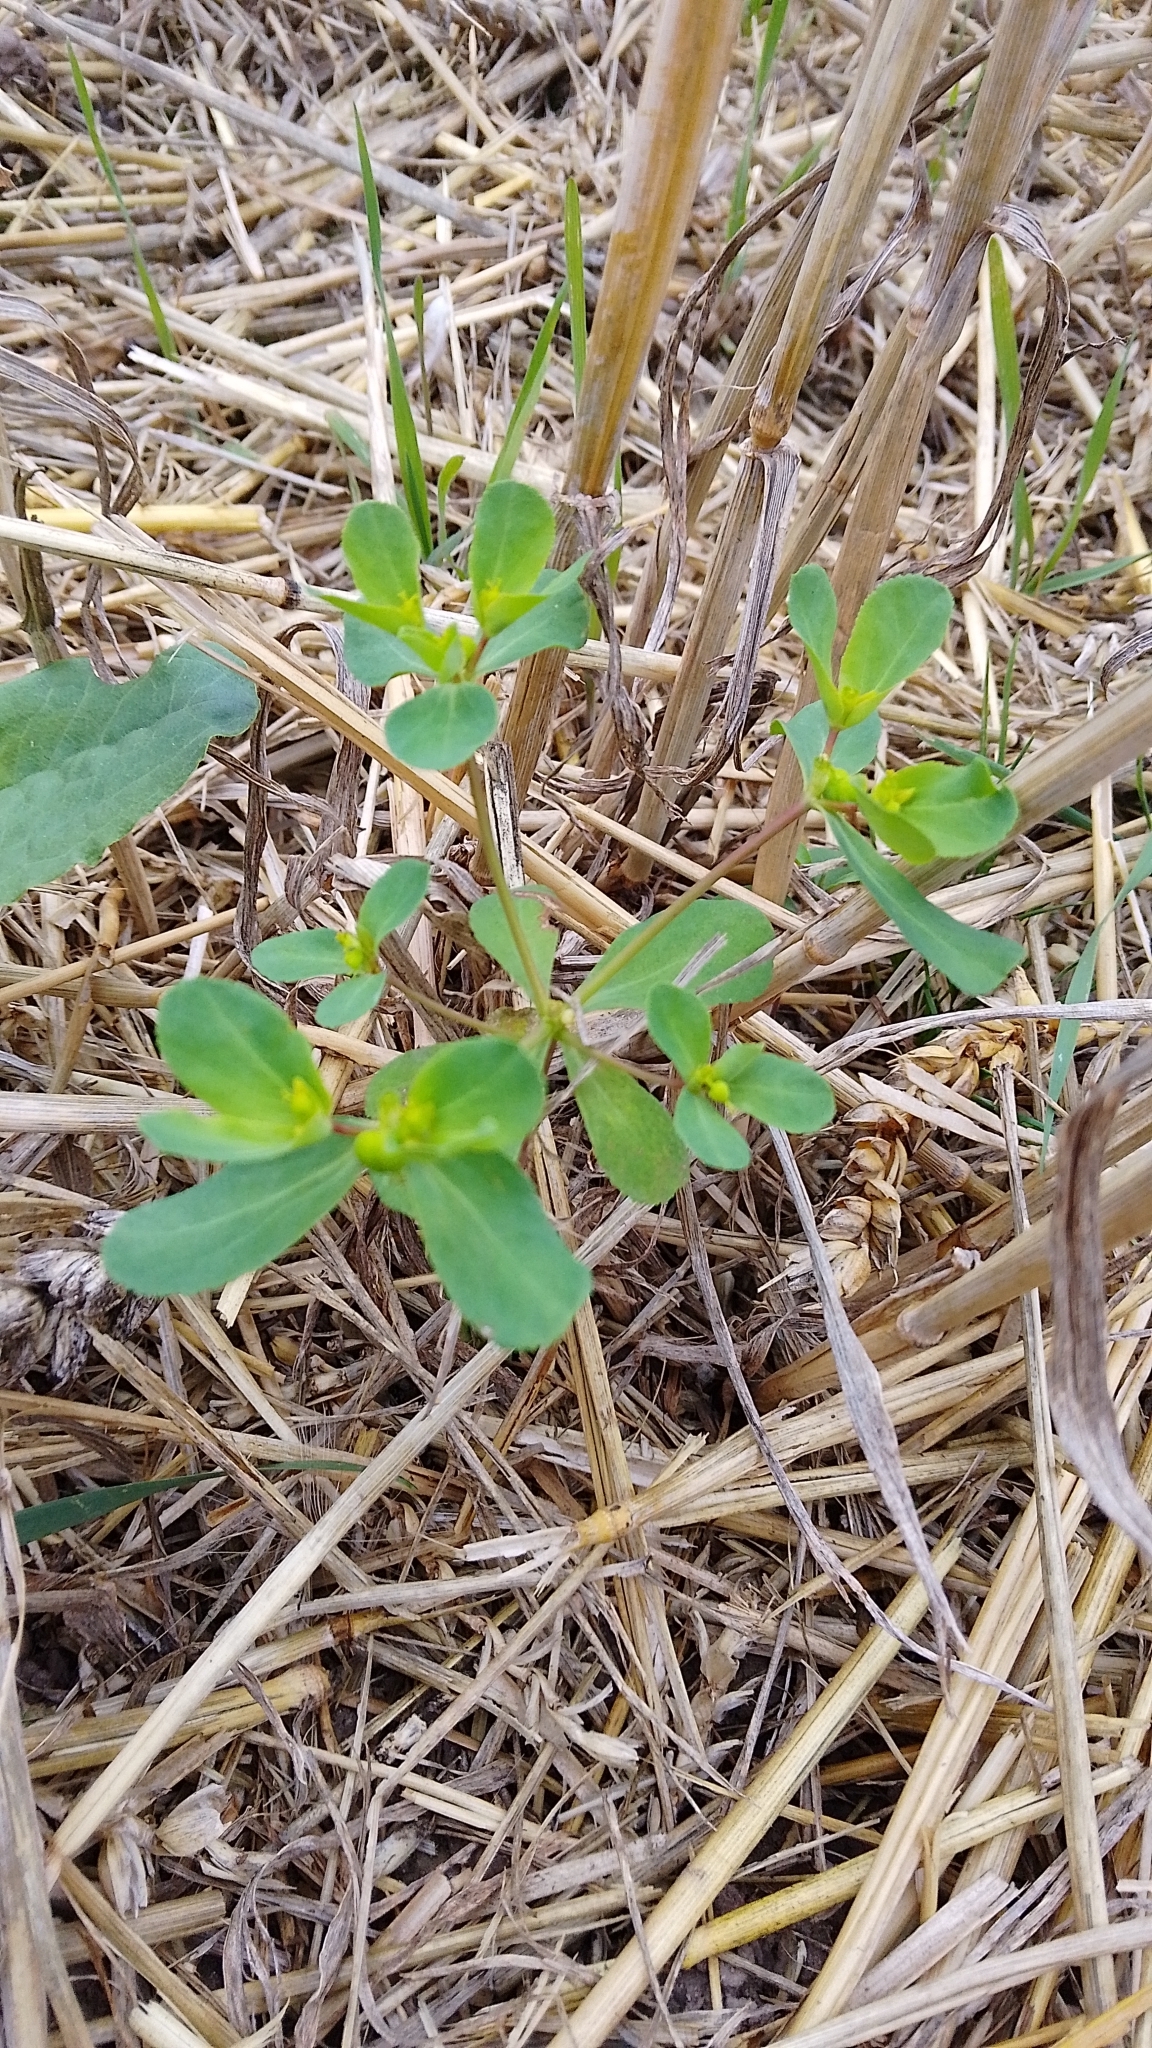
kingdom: Plantae
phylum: Tracheophyta
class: Magnoliopsida
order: Malpighiales
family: Euphorbiaceae
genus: Euphorbia
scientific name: Euphorbia helioscopia
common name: Sun spurge
